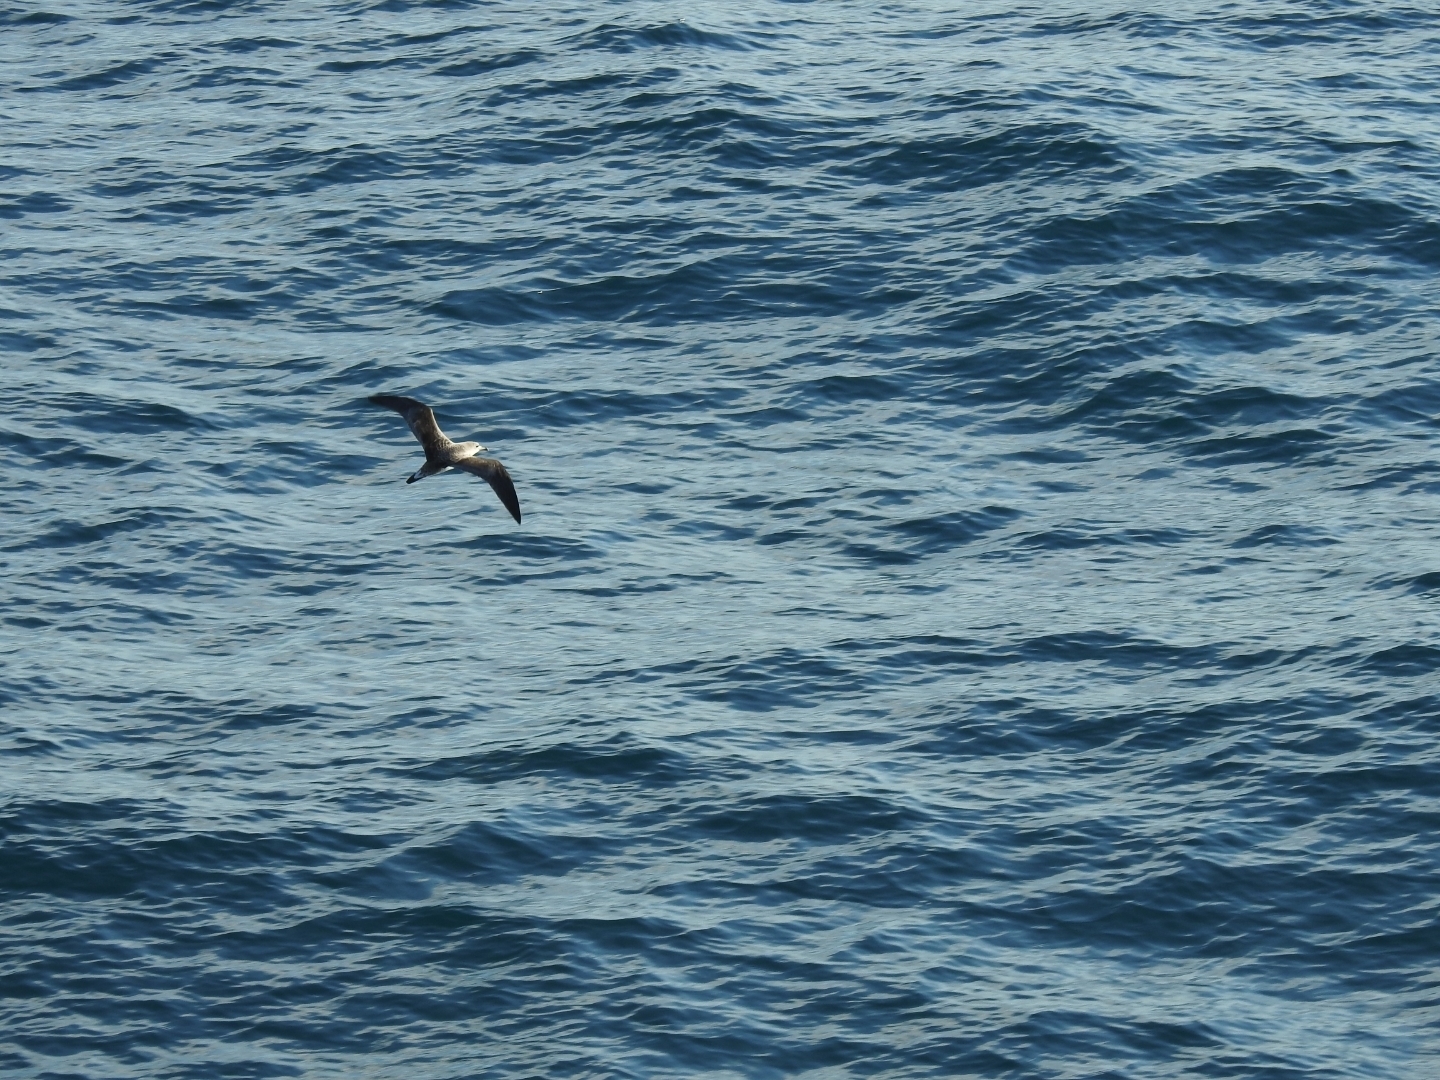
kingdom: Animalia
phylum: Chordata
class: Aves
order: Procellariiformes
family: Procellariidae
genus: Calonectris
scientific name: Calonectris diomedea
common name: Cory's shearwater
